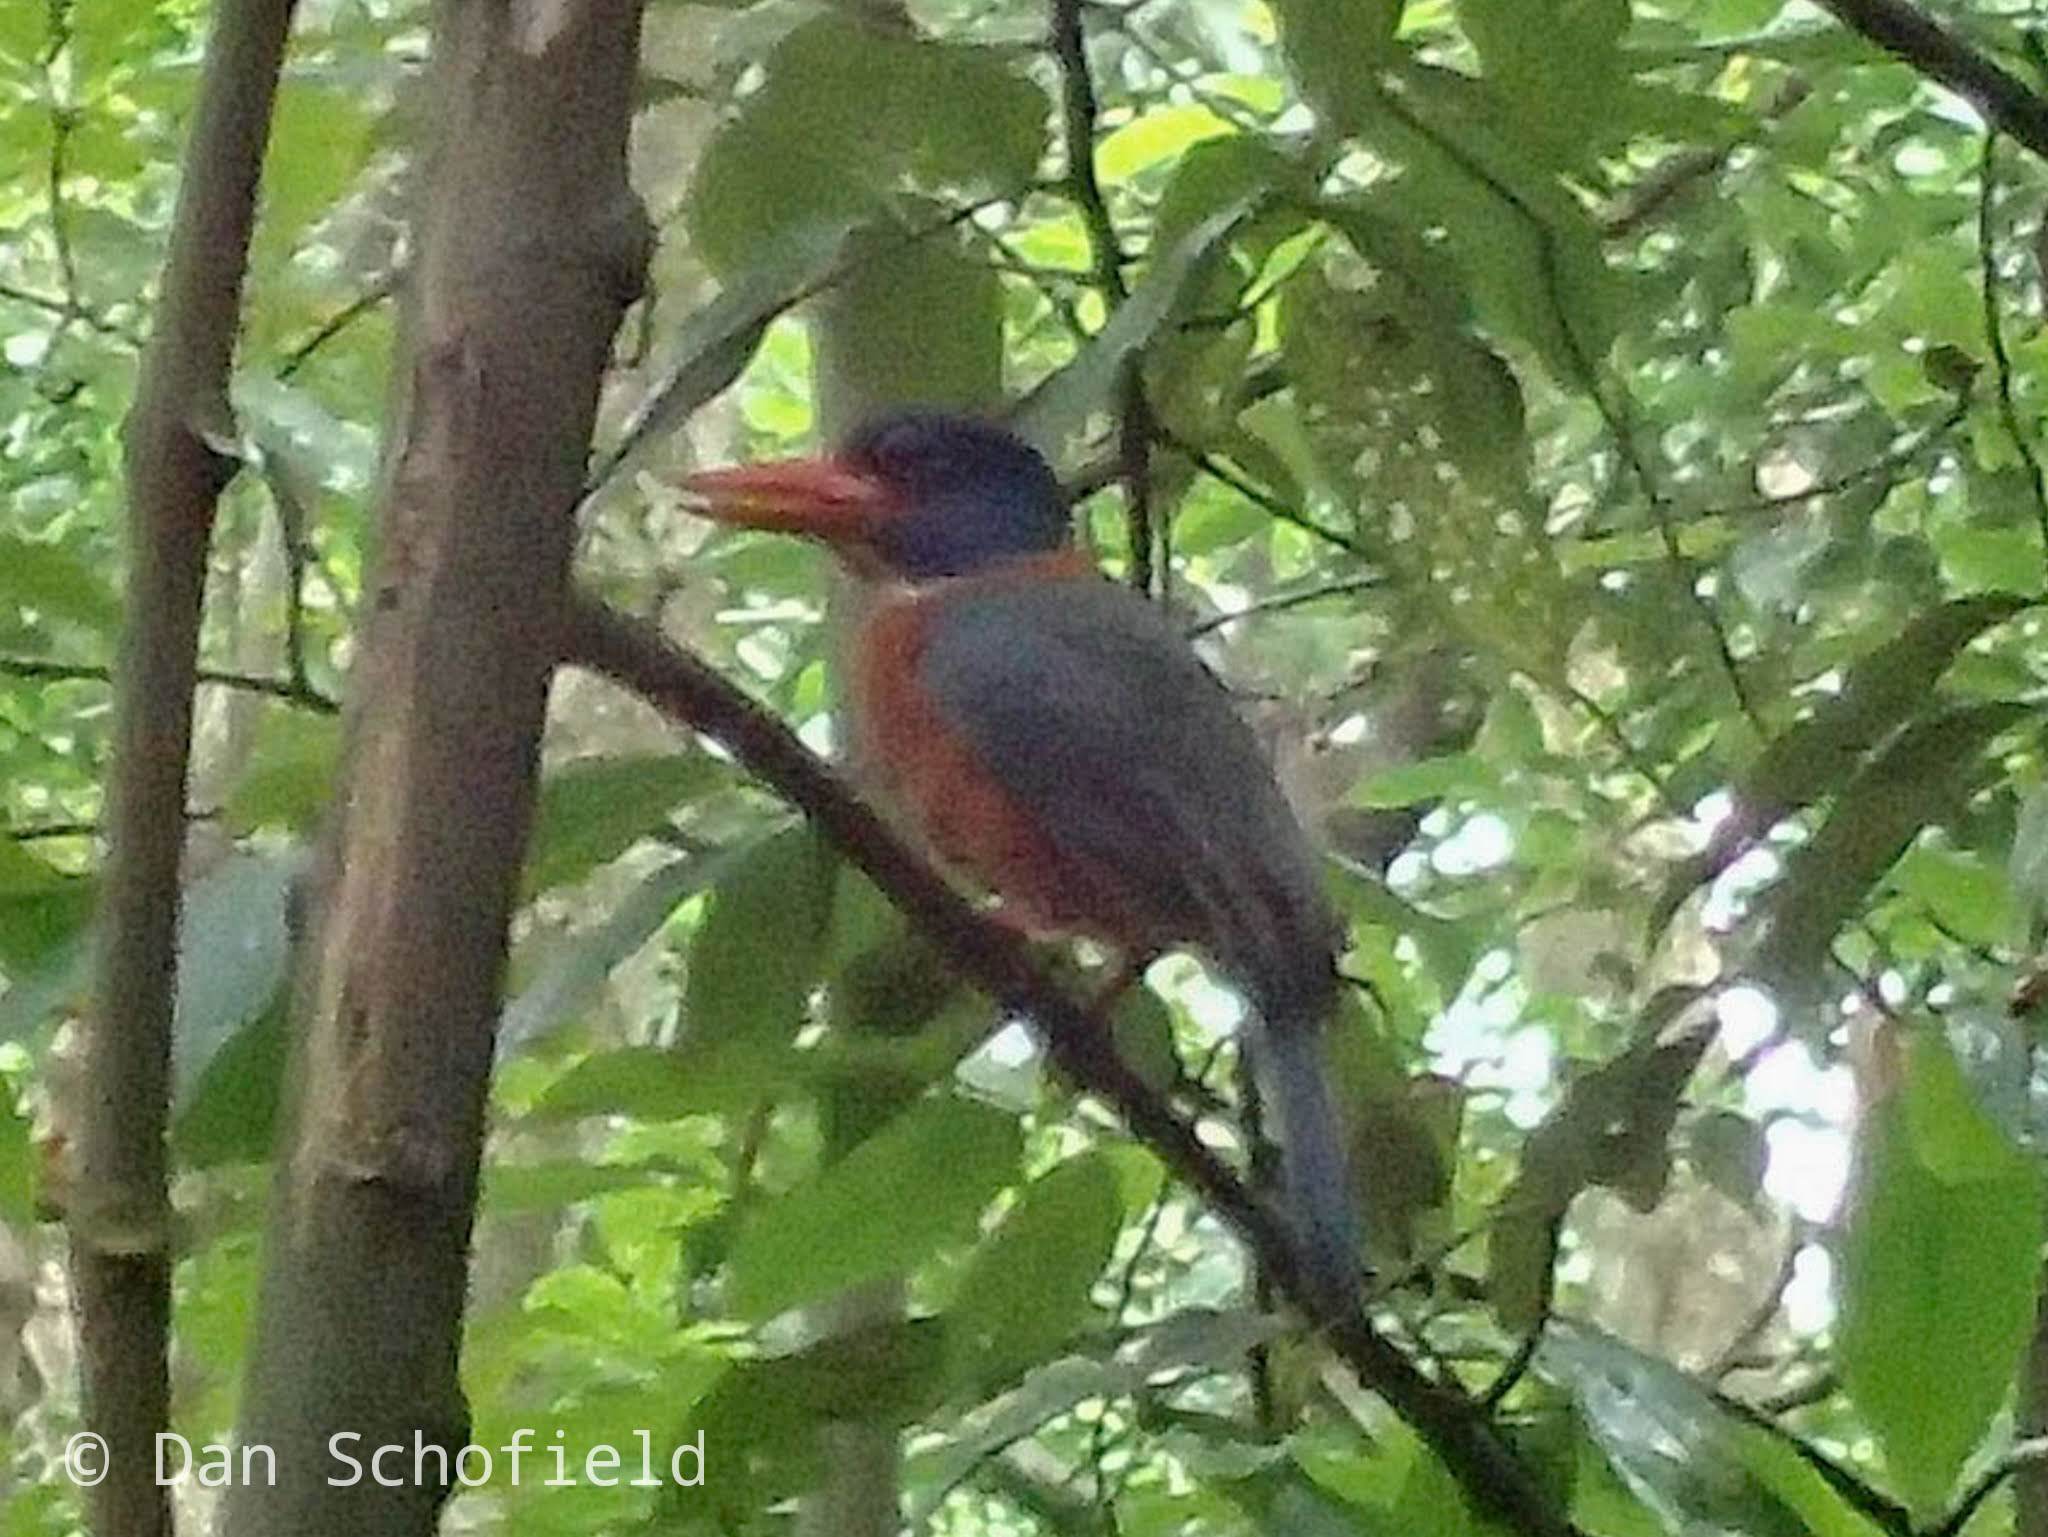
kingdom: Animalia
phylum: Chordata
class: Aves
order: Coraciiformes
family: Alcedinidae
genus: Actenoides
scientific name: Actenoides monachus
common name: Green-backed kingfisher
